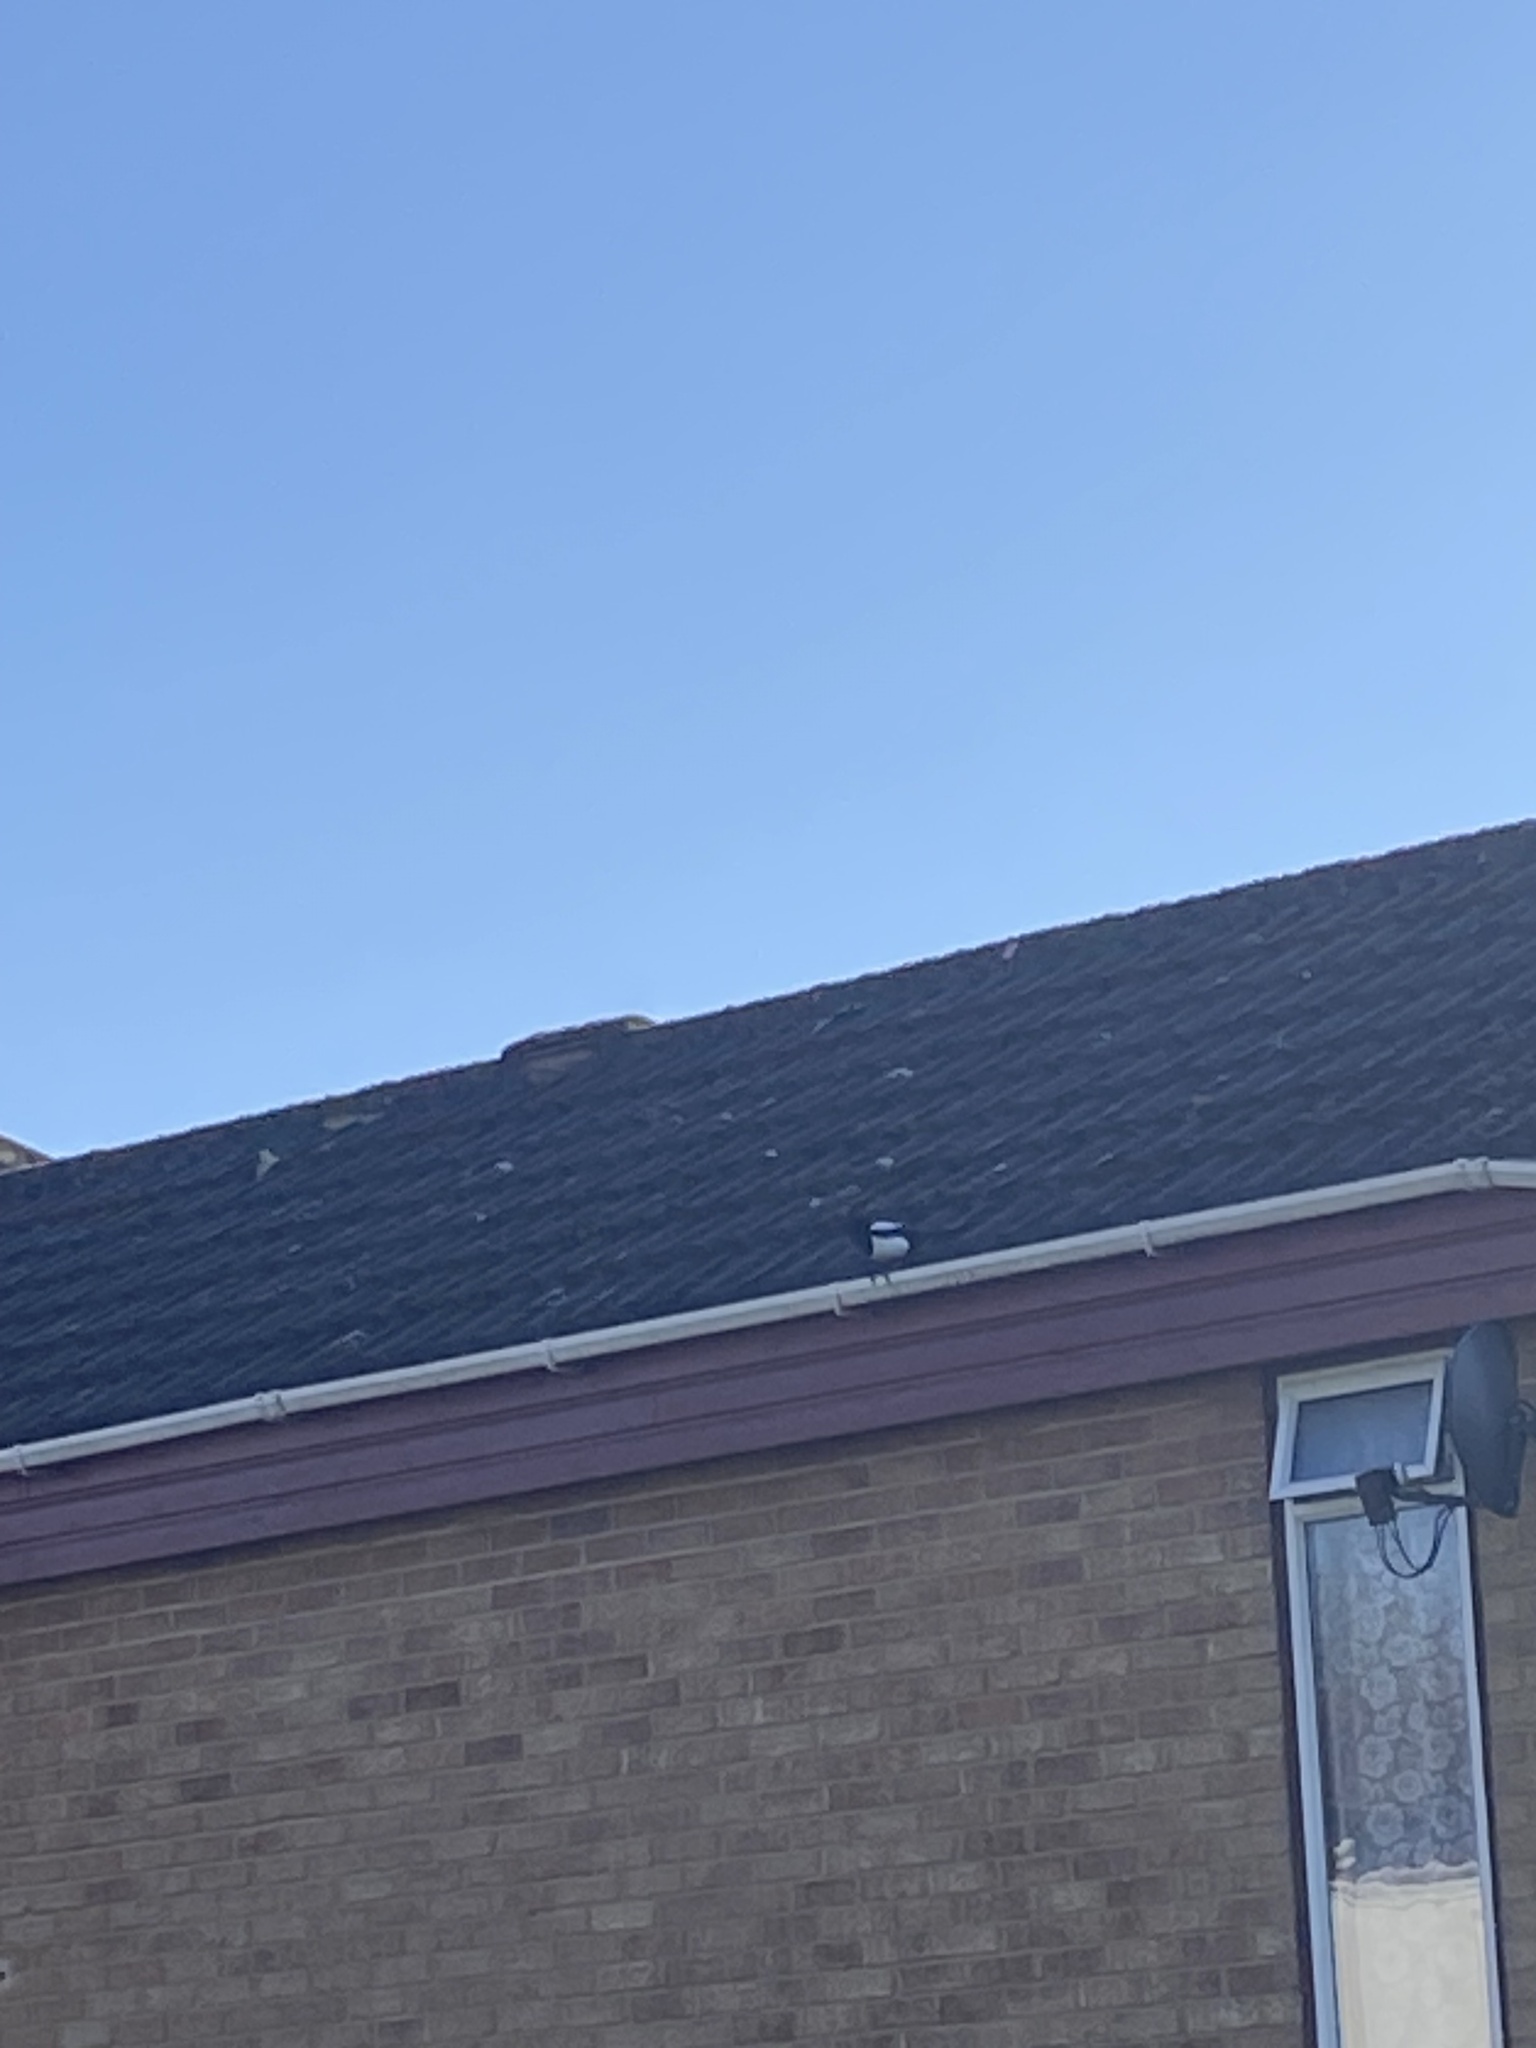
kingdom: Animalia
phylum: Chordata
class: Aves
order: Passeriformes
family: Corvidae
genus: Pica
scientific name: Pica pica
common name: Eurasian magpie
